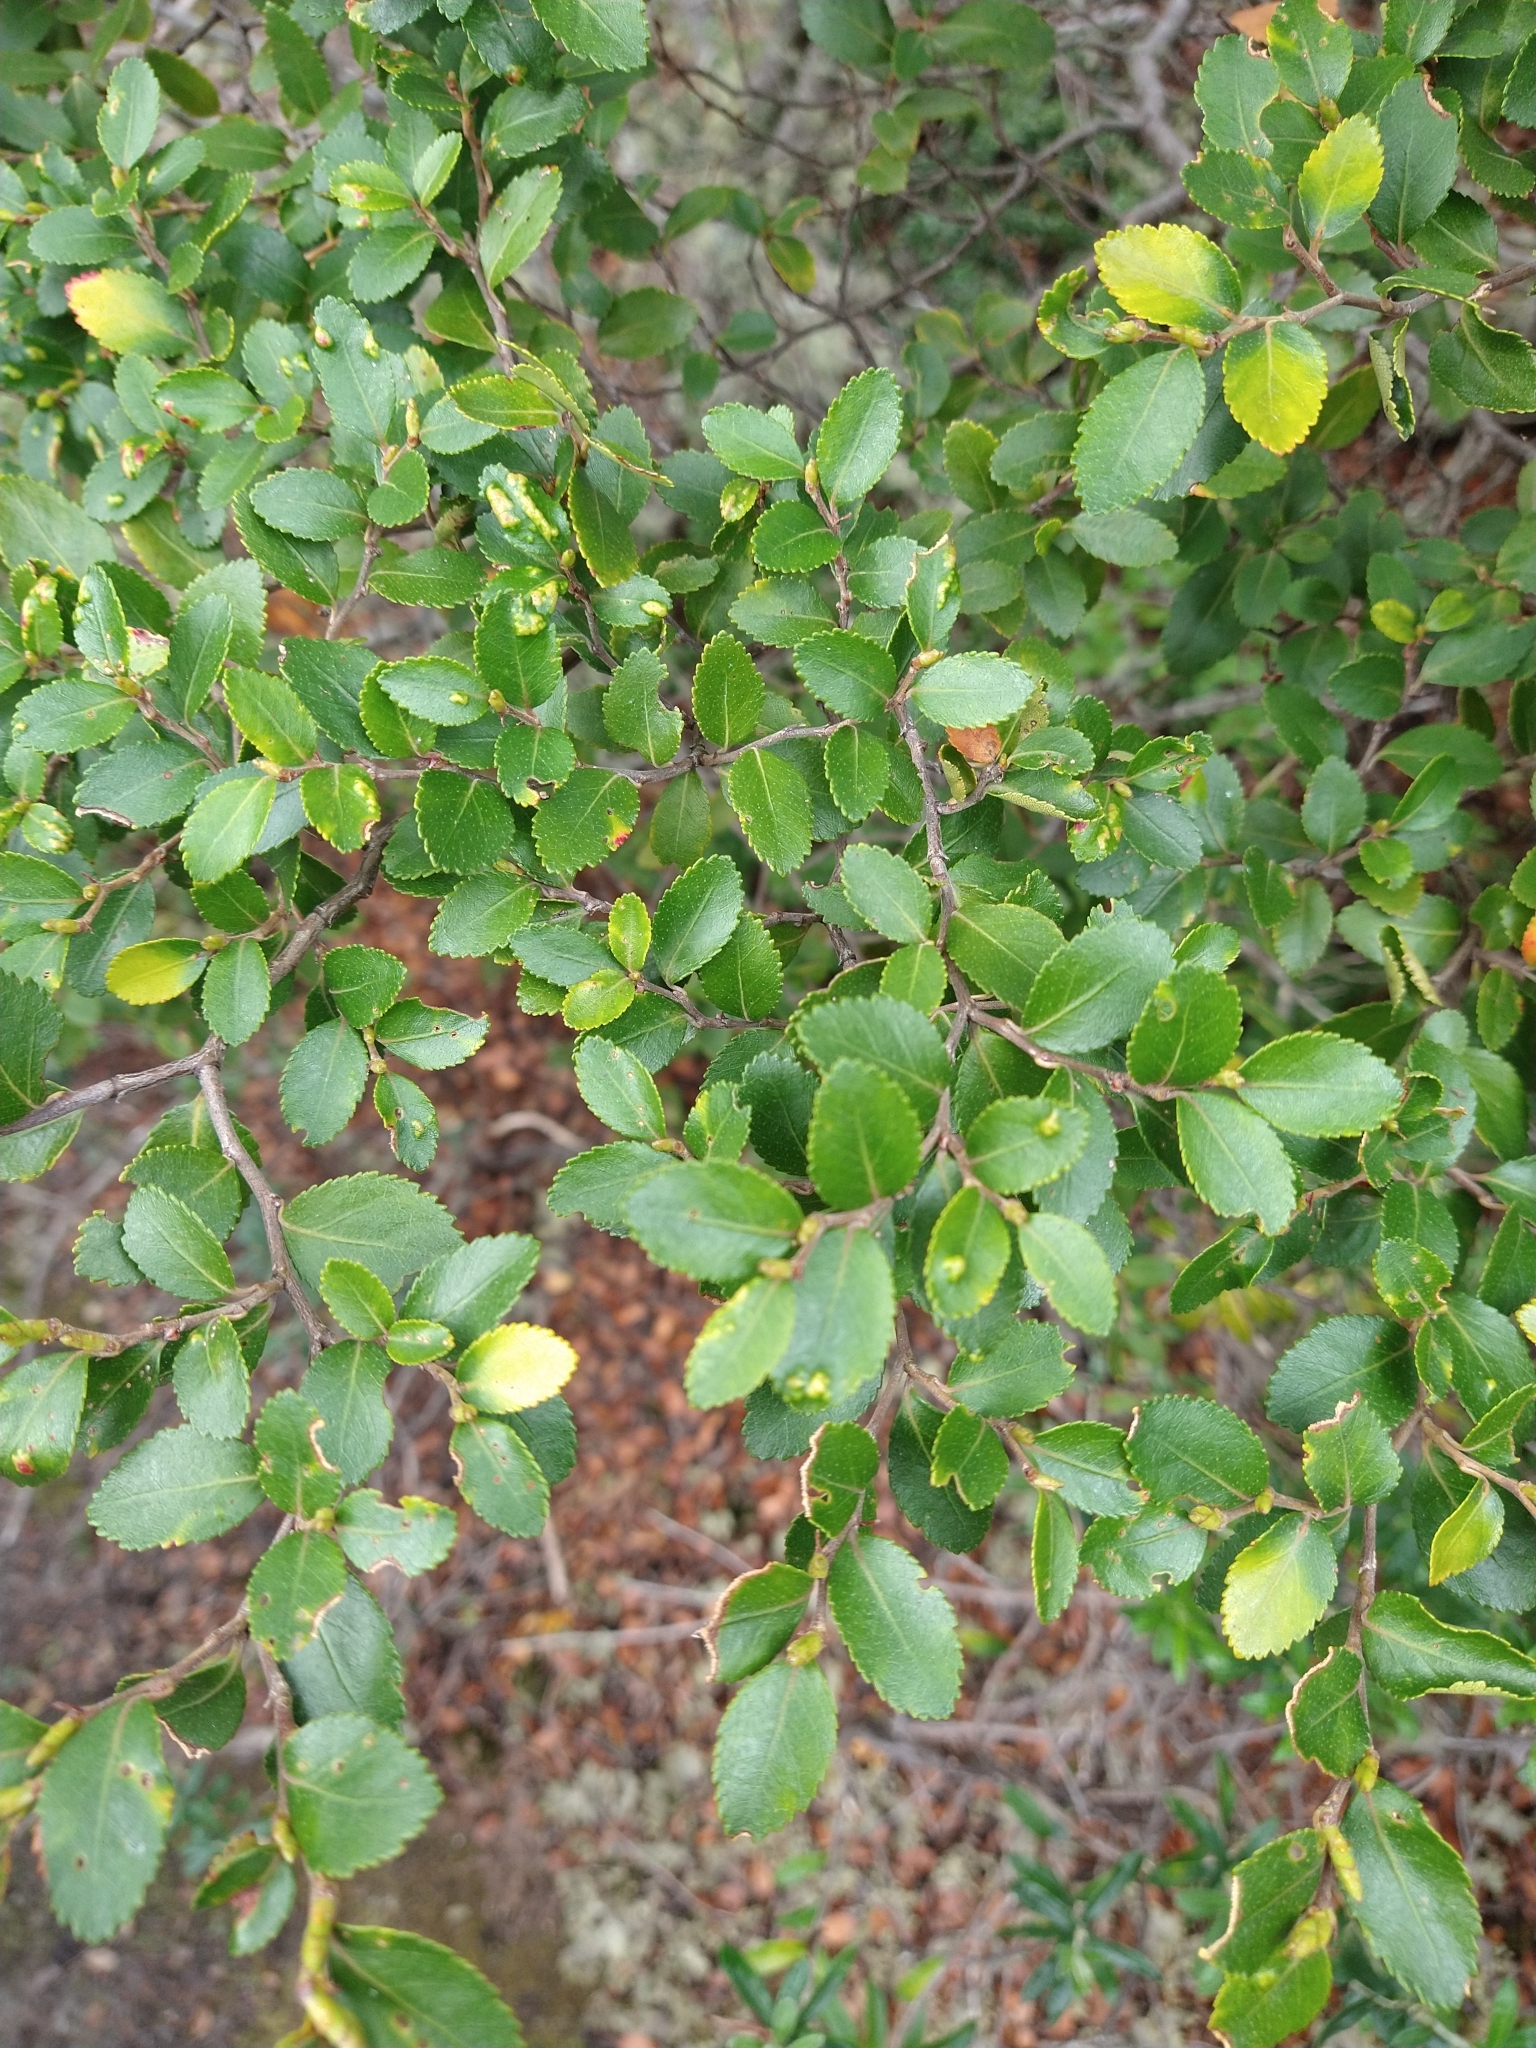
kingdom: Plantae
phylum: Tracheophyta
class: Magnoliopsida
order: Fagales
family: Nothofagaceae
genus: Nothofagus
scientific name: Nothofagus betuloides
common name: Magellan's beech
